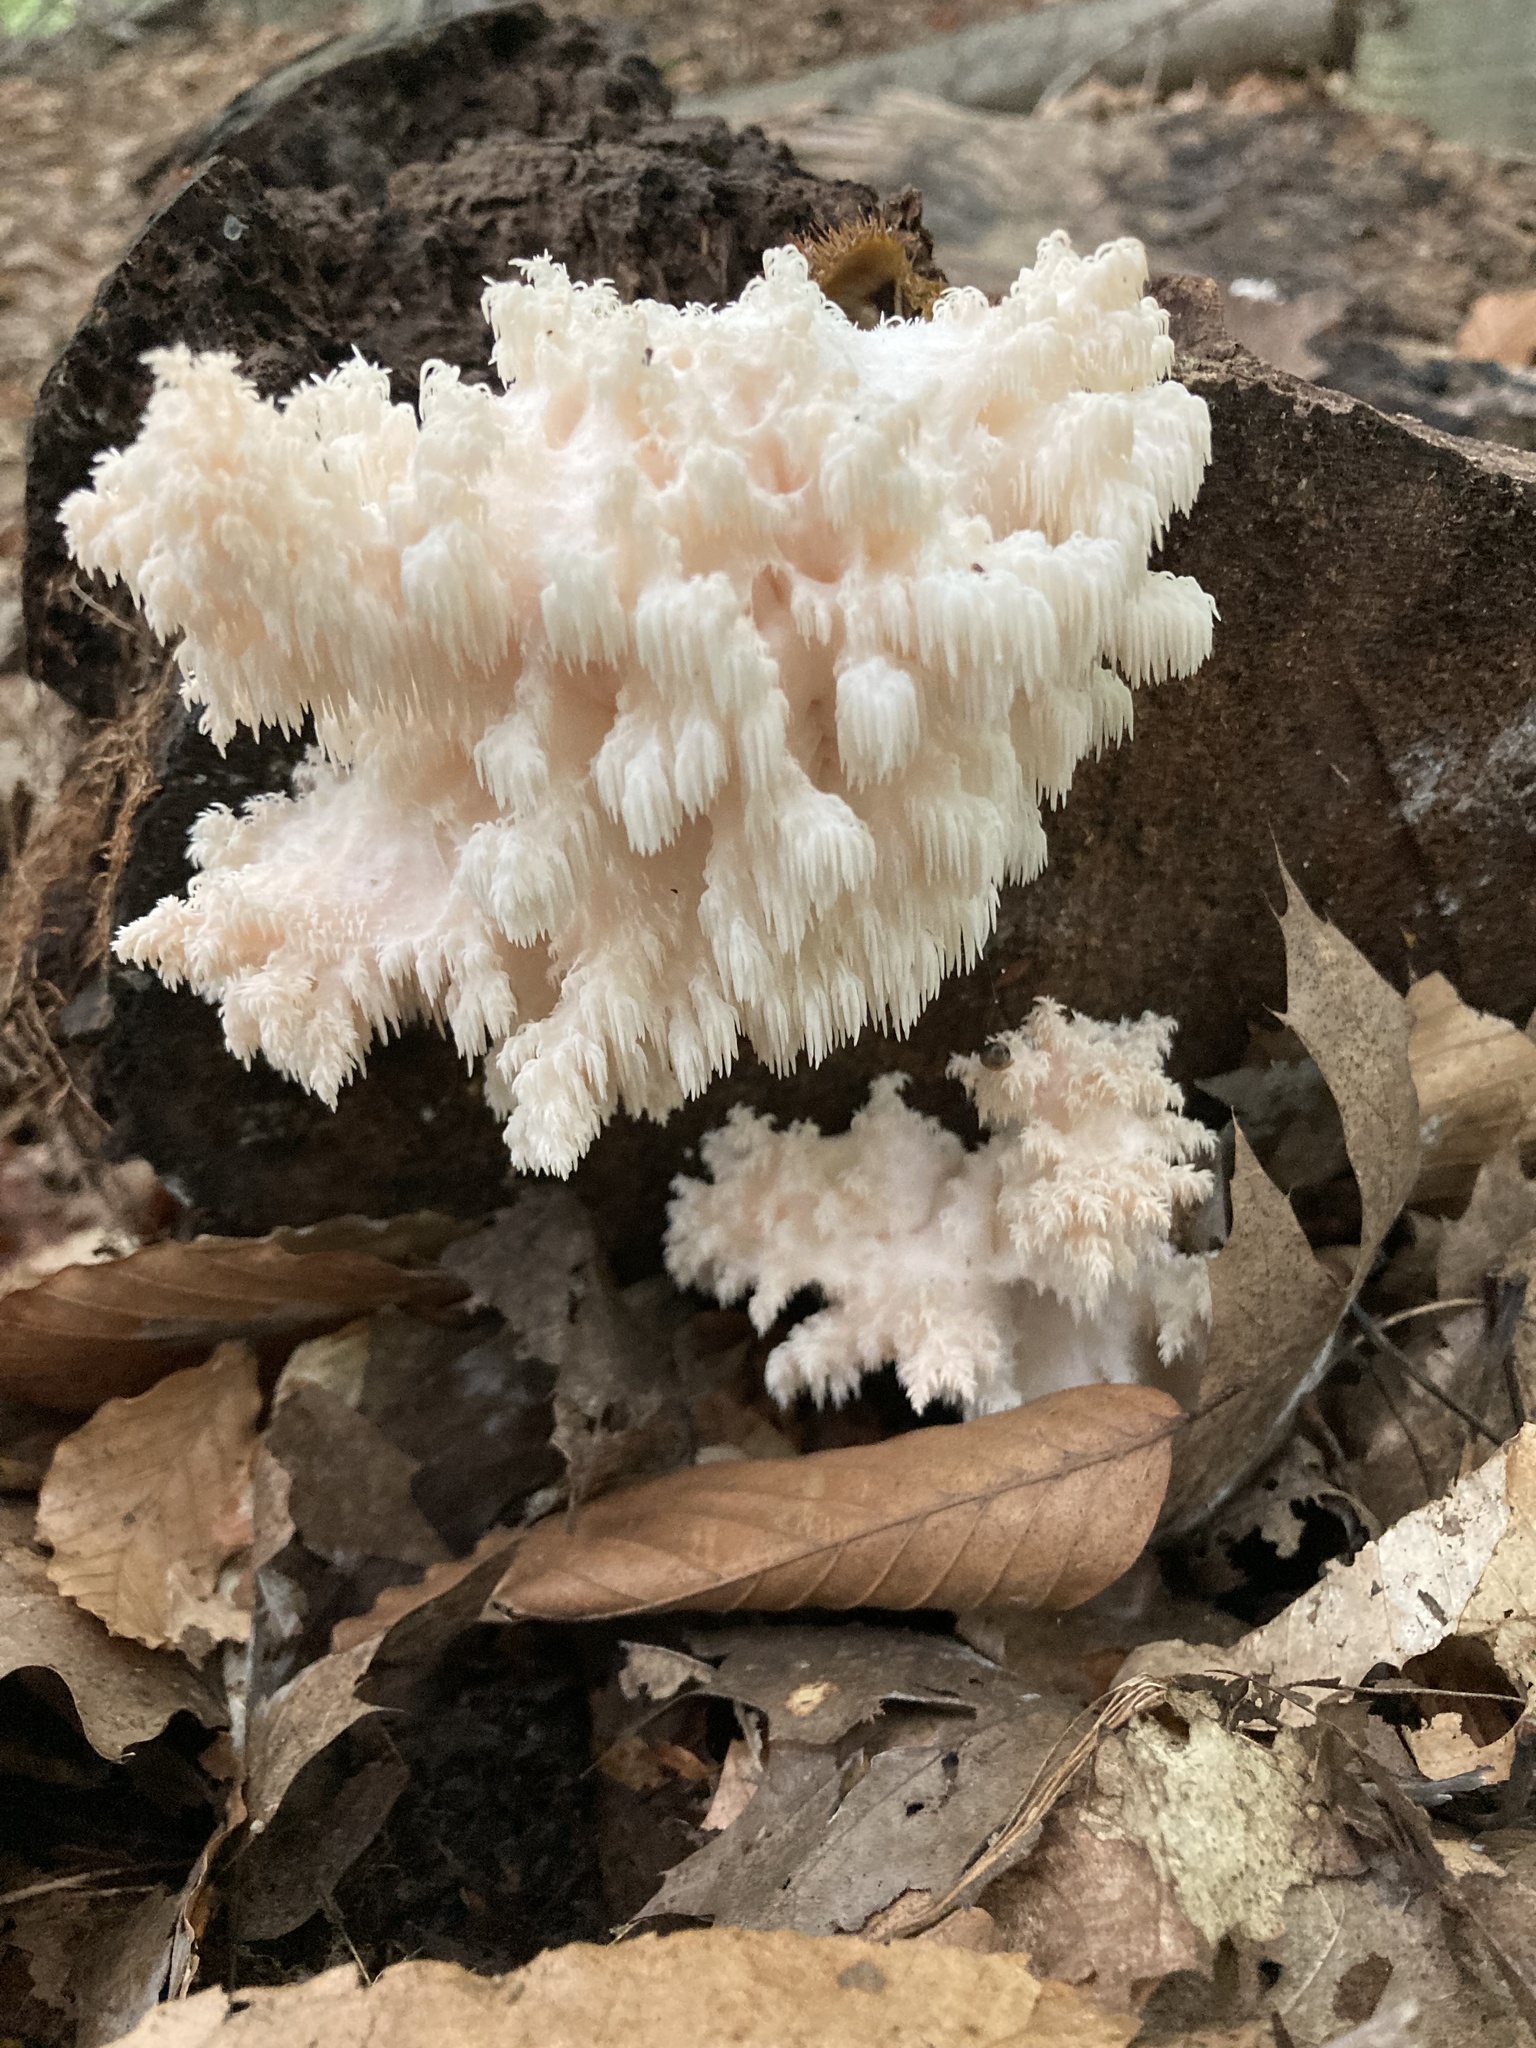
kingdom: Fungi
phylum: Basidiomycota
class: Agaricomycetes
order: Russulales
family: Hericiaceae
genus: Hericium
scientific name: Hericium americanum
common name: Bear's head tooth
